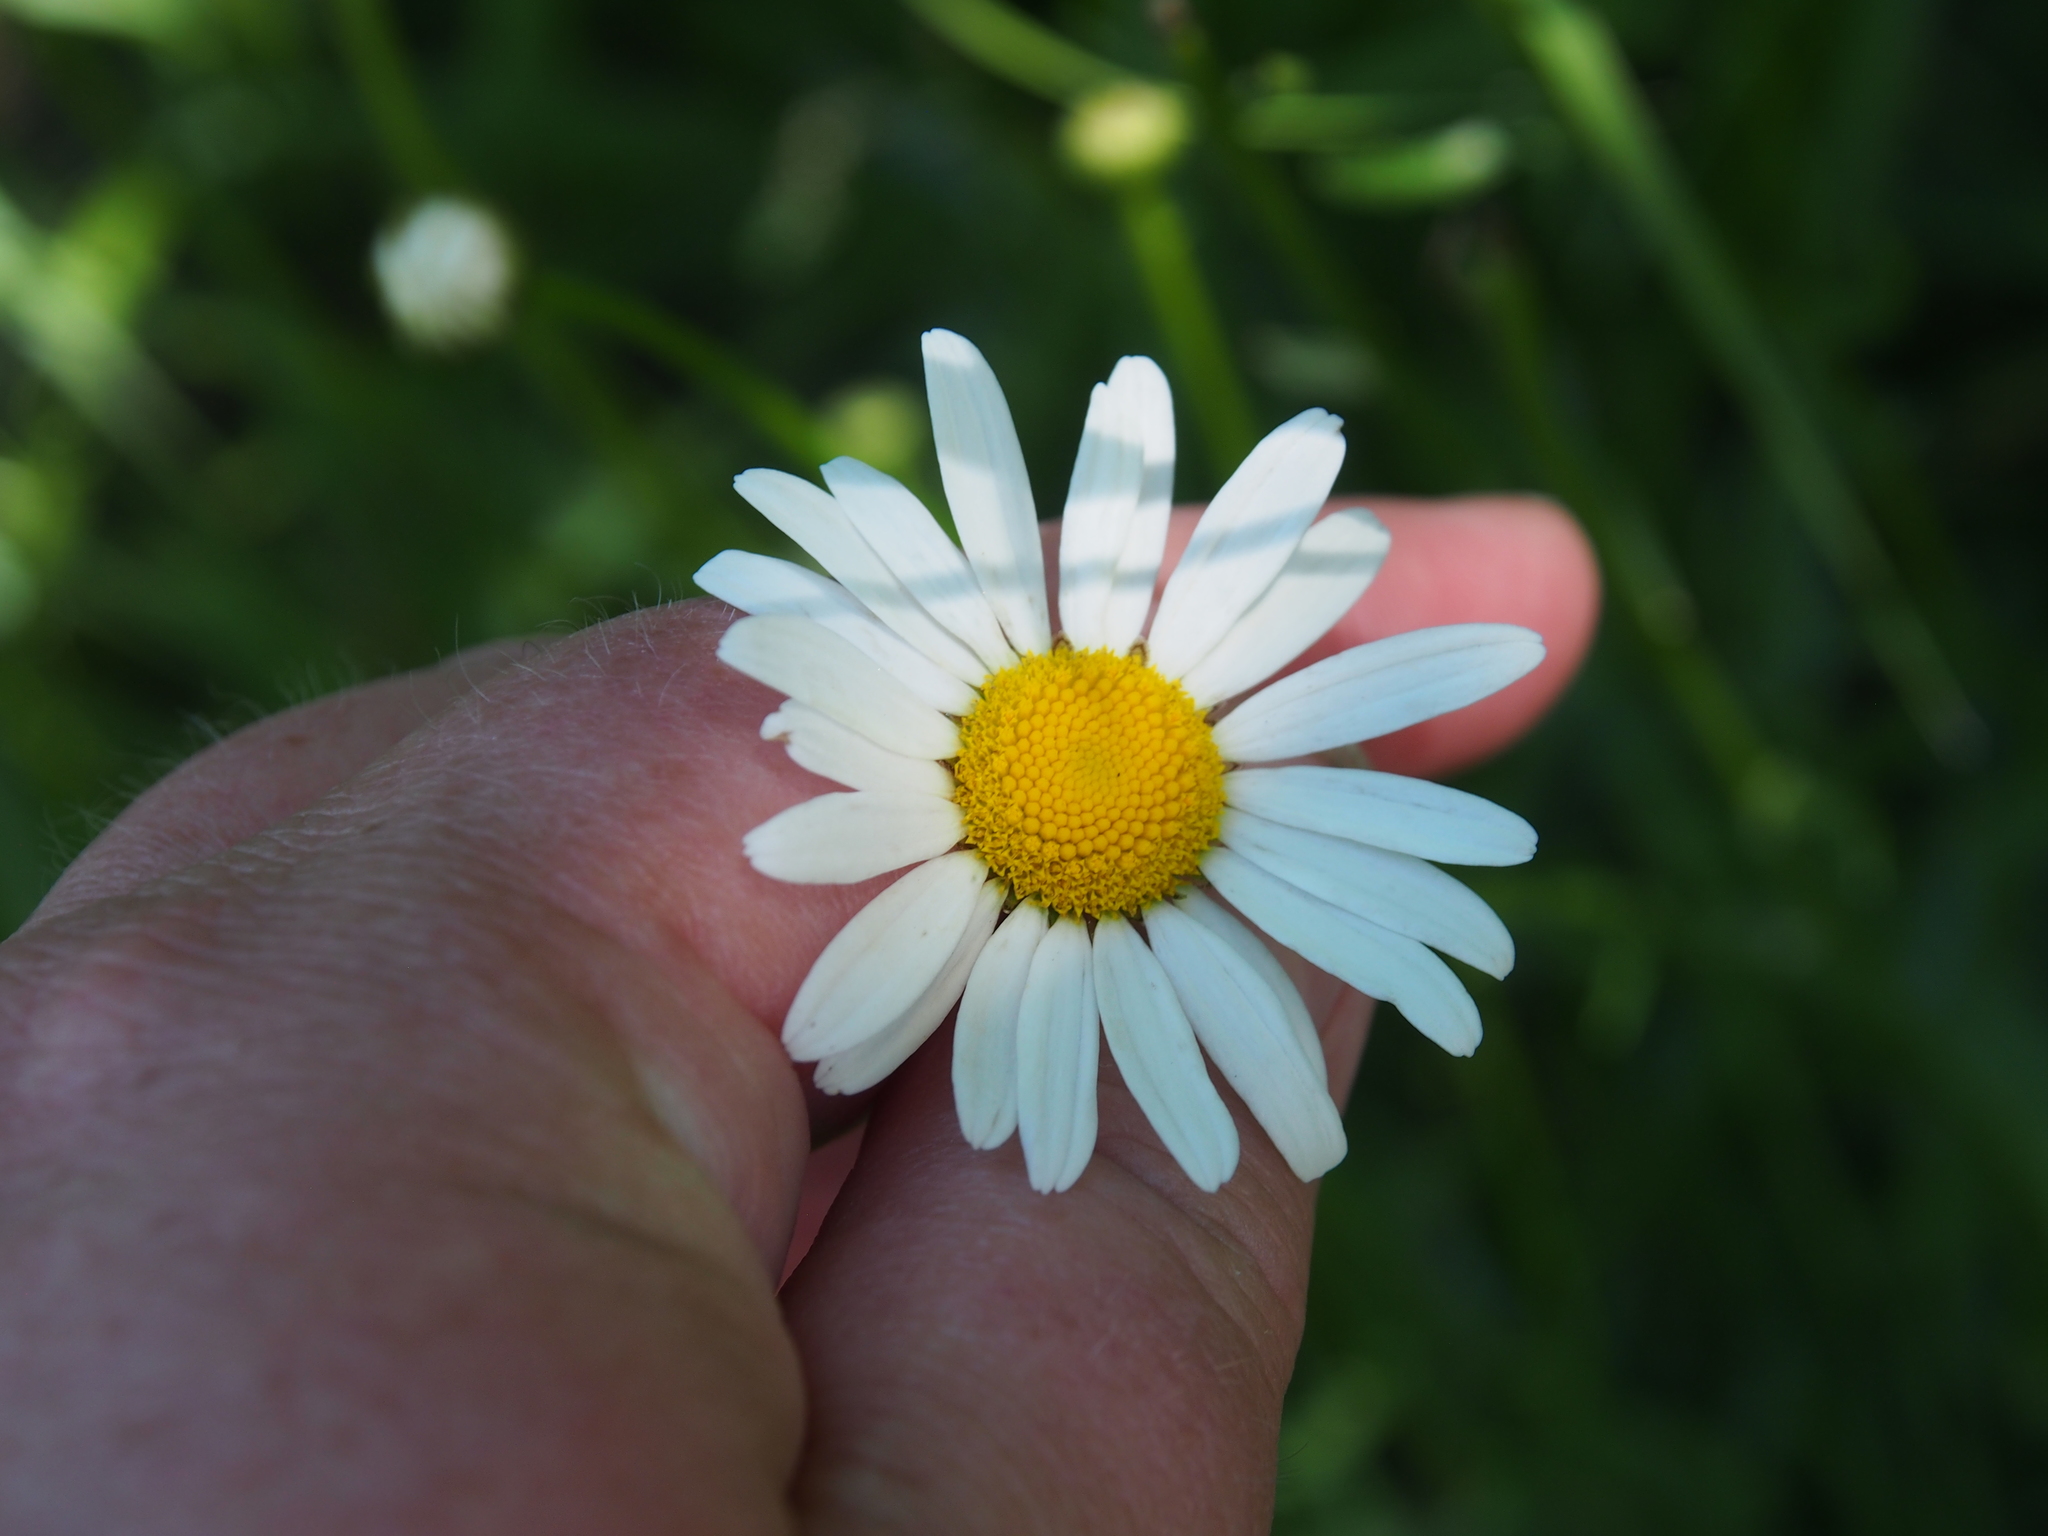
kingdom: Plantae
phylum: Tracheophyta
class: Magnoliopsida
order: Asterales
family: Asteraceae
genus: Leucanthemum
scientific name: Leucanthemum vulgare
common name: Oxeye daisy
